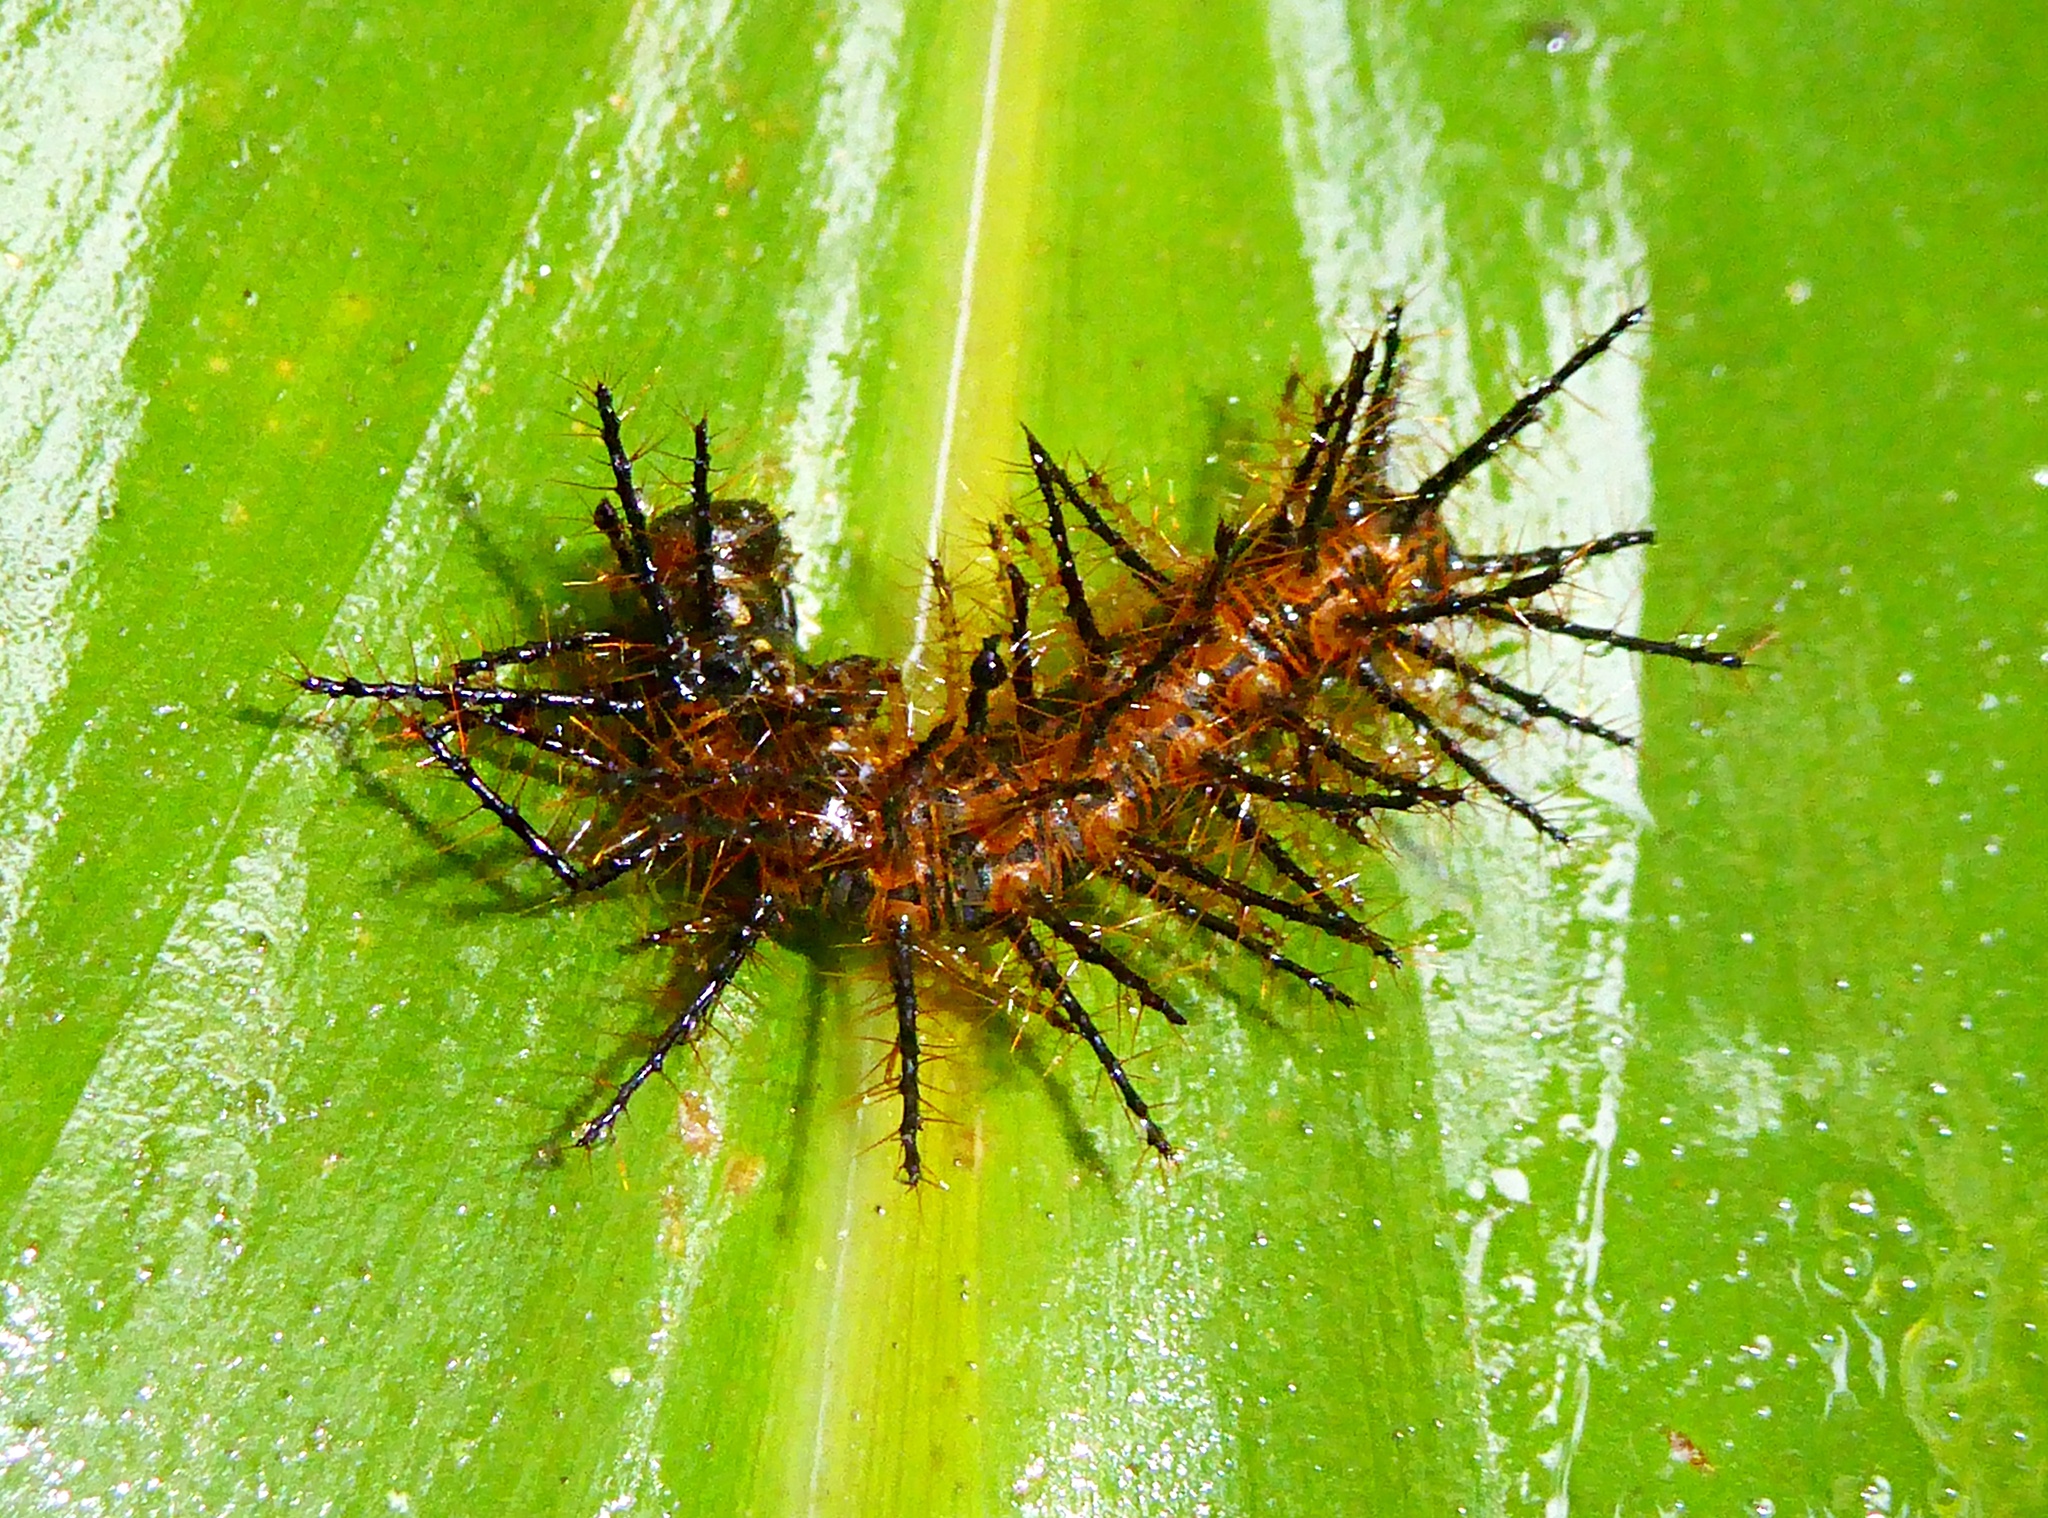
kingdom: Animalia
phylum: Arthropoda
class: Insecta
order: Lepidoptera
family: Nymphalidae
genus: Actinote
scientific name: Actinote anteas
